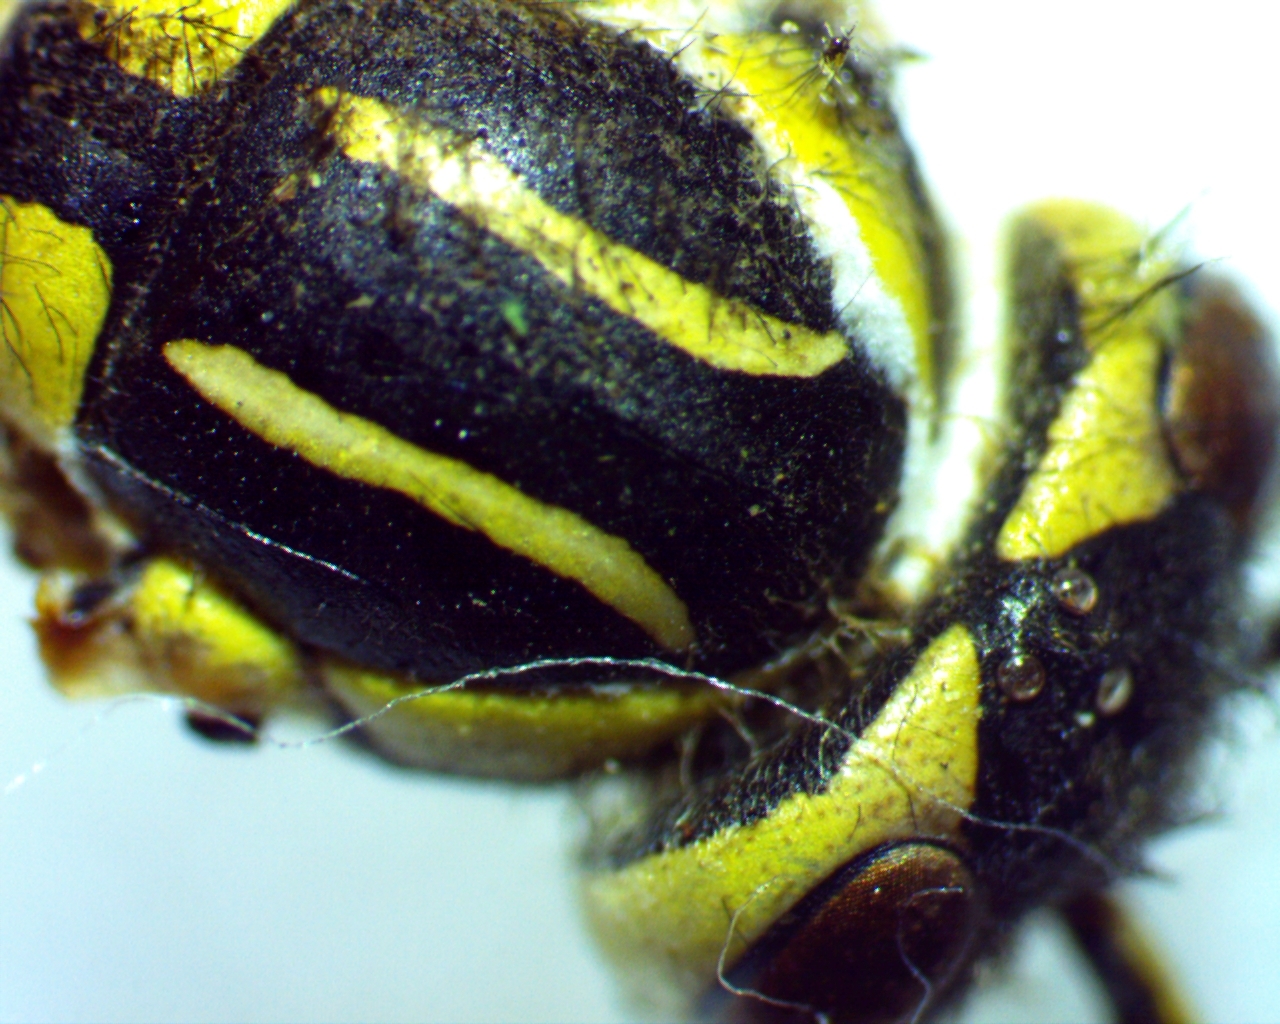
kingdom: Animalia
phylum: Arthropoda
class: Insecta
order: Hymenoptera
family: Vespidae
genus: Vespula
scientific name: Vespula squamosa
